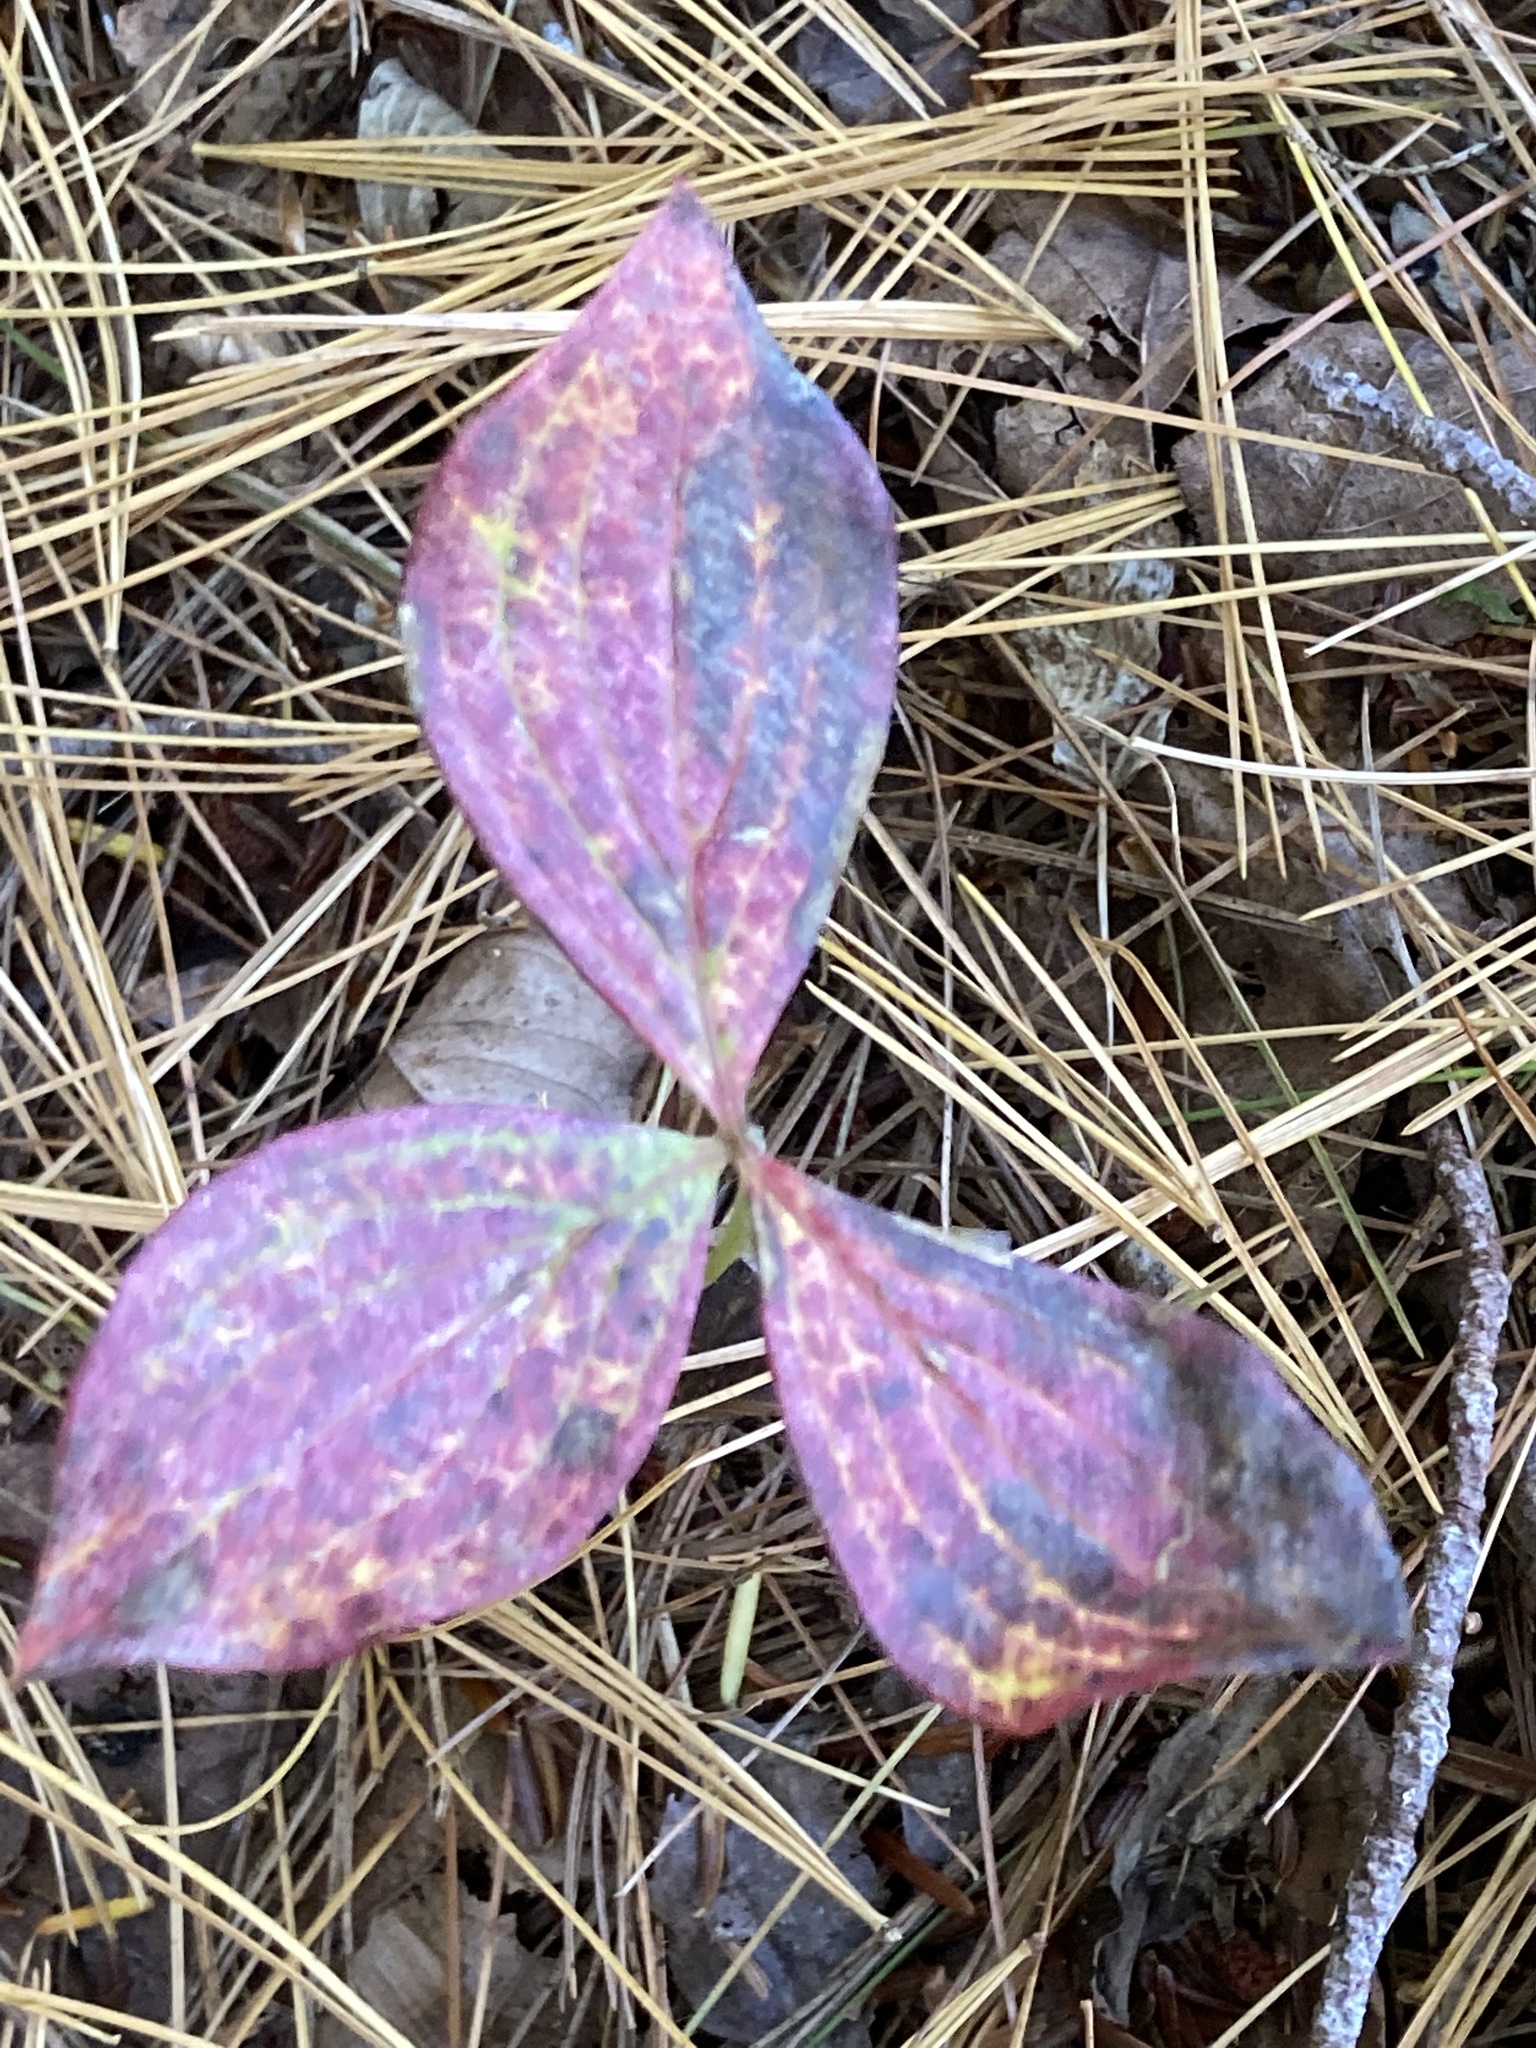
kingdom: Plantae
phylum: Tracheophyta
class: Magnoliopsida
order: Cornales
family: Cornaceae
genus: Cornus
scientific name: Cornus canadensis
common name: Creeping dogwood
